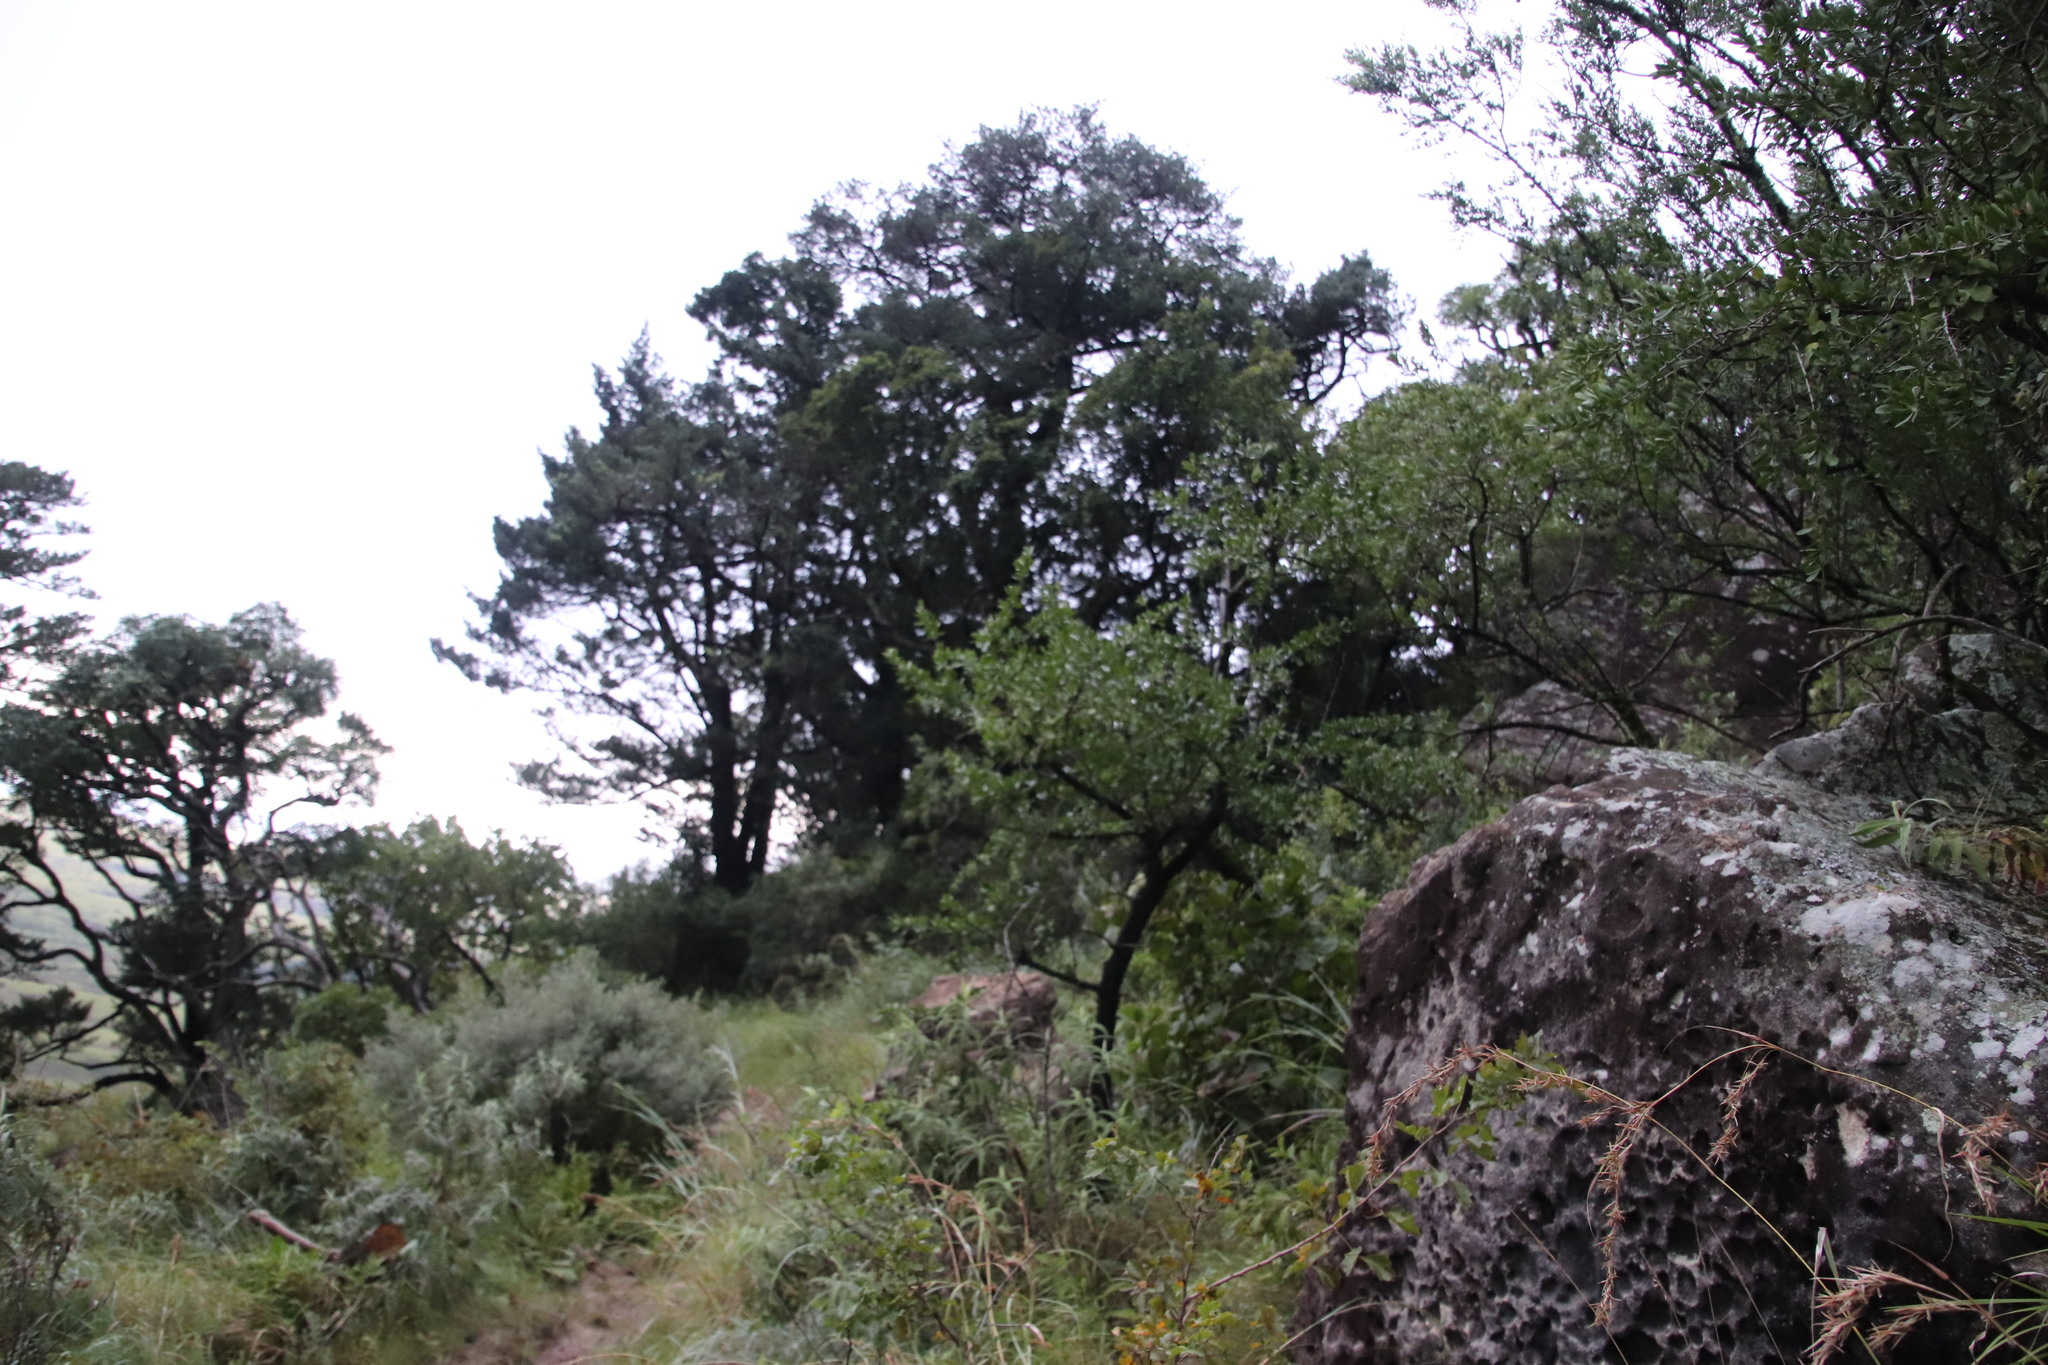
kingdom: Plantae
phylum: Tracheophyta
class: Magnoliopsida
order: Asterales
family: Asteraceae
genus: Senecio
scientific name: Senecio tamoides
